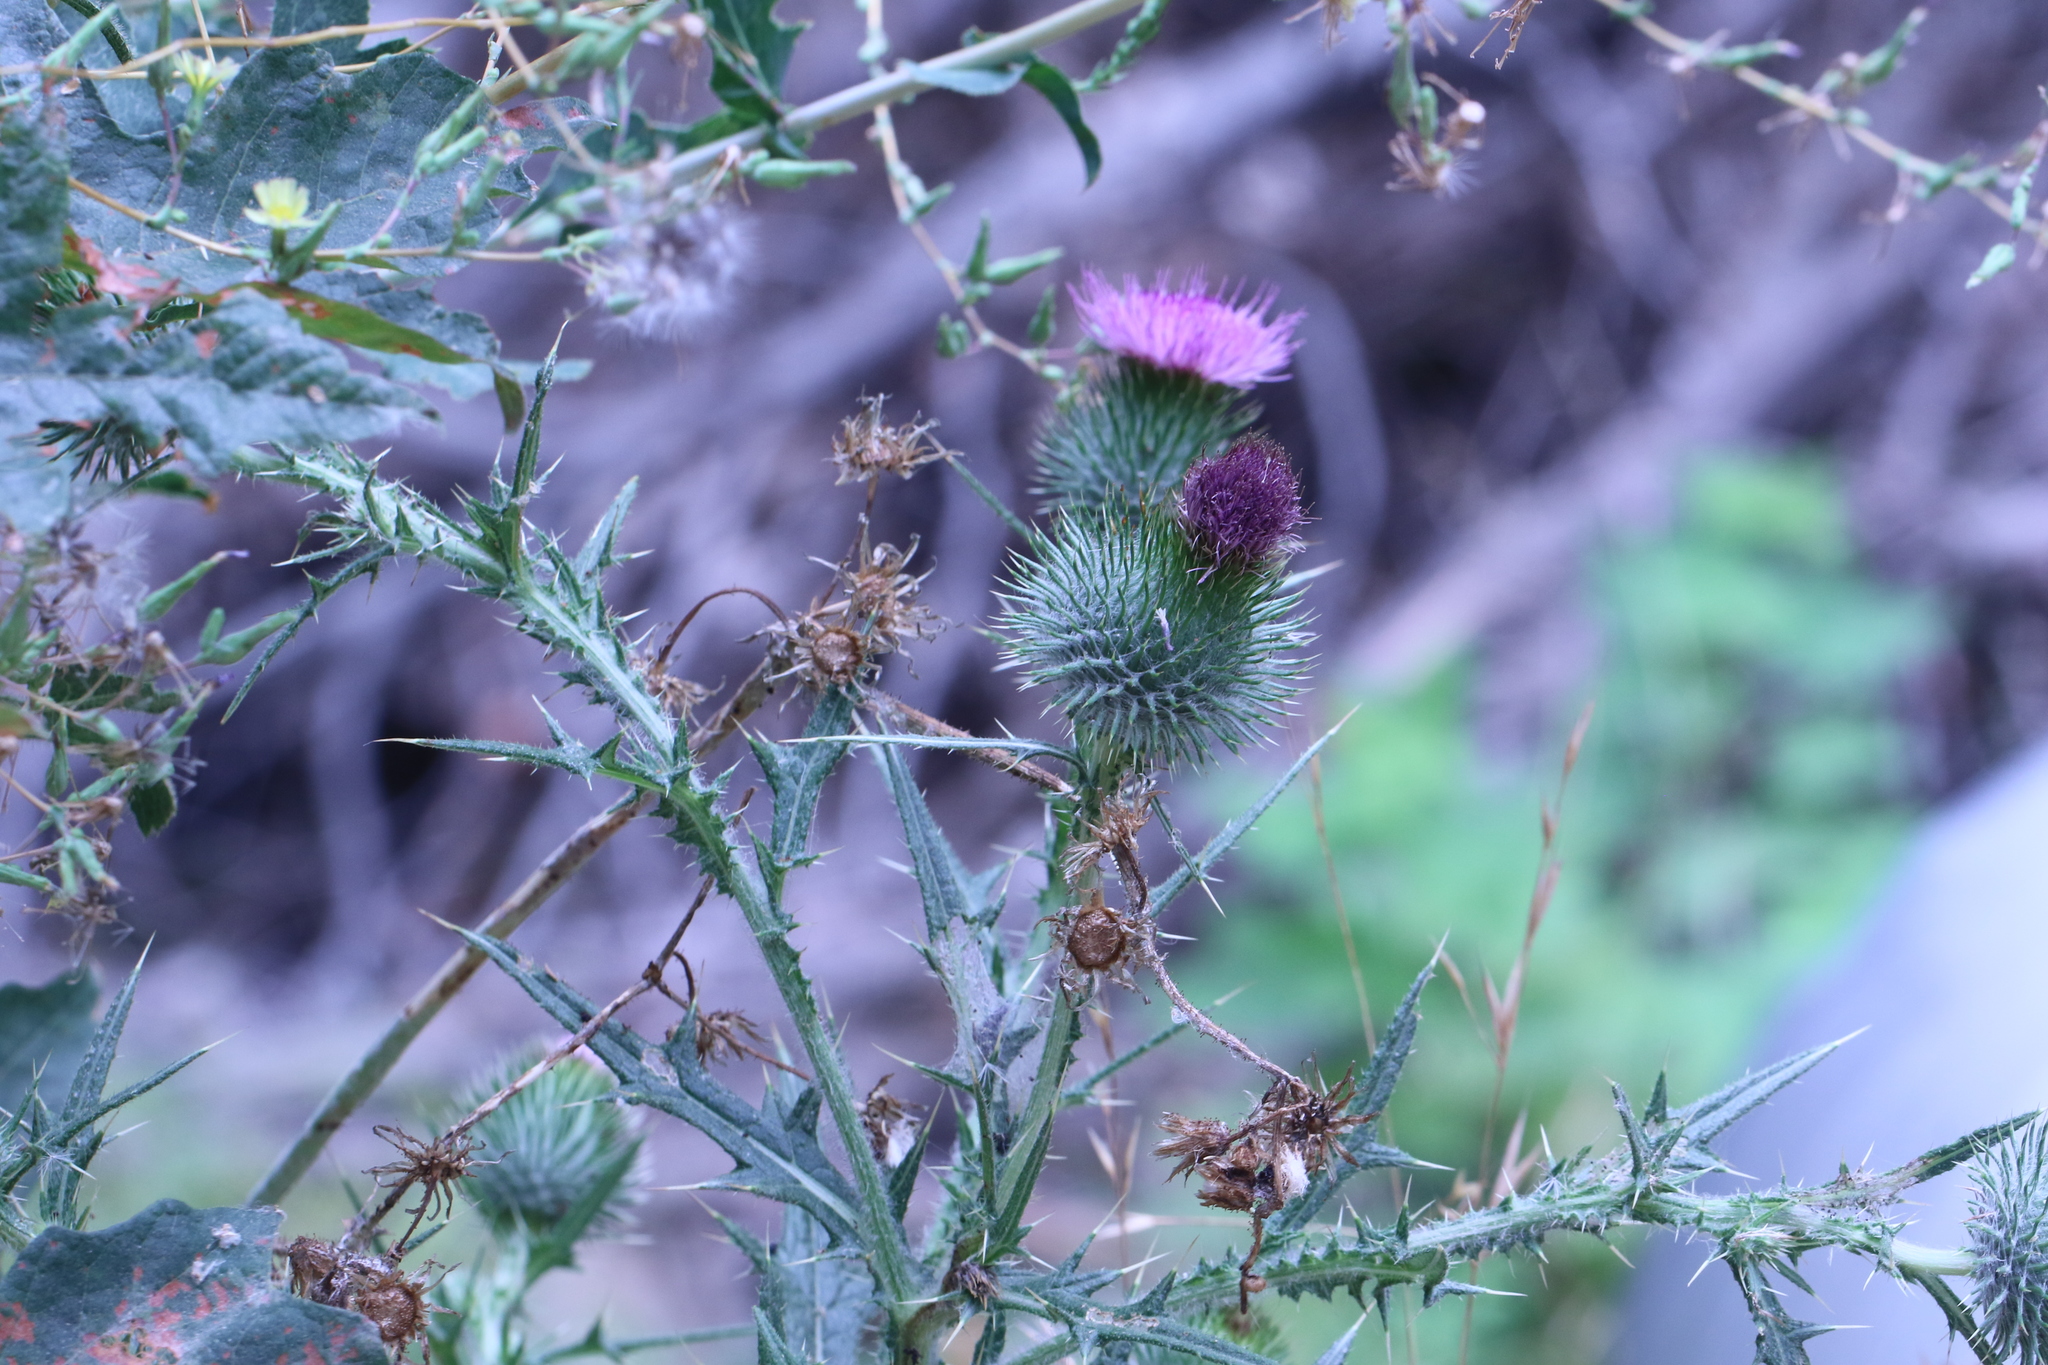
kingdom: Plantae
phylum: Tracheophyta
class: Magnoliopsida
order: Asterales
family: Asteraceae
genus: Cirsium
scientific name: Cirsium vulgare
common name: Bull thistle
